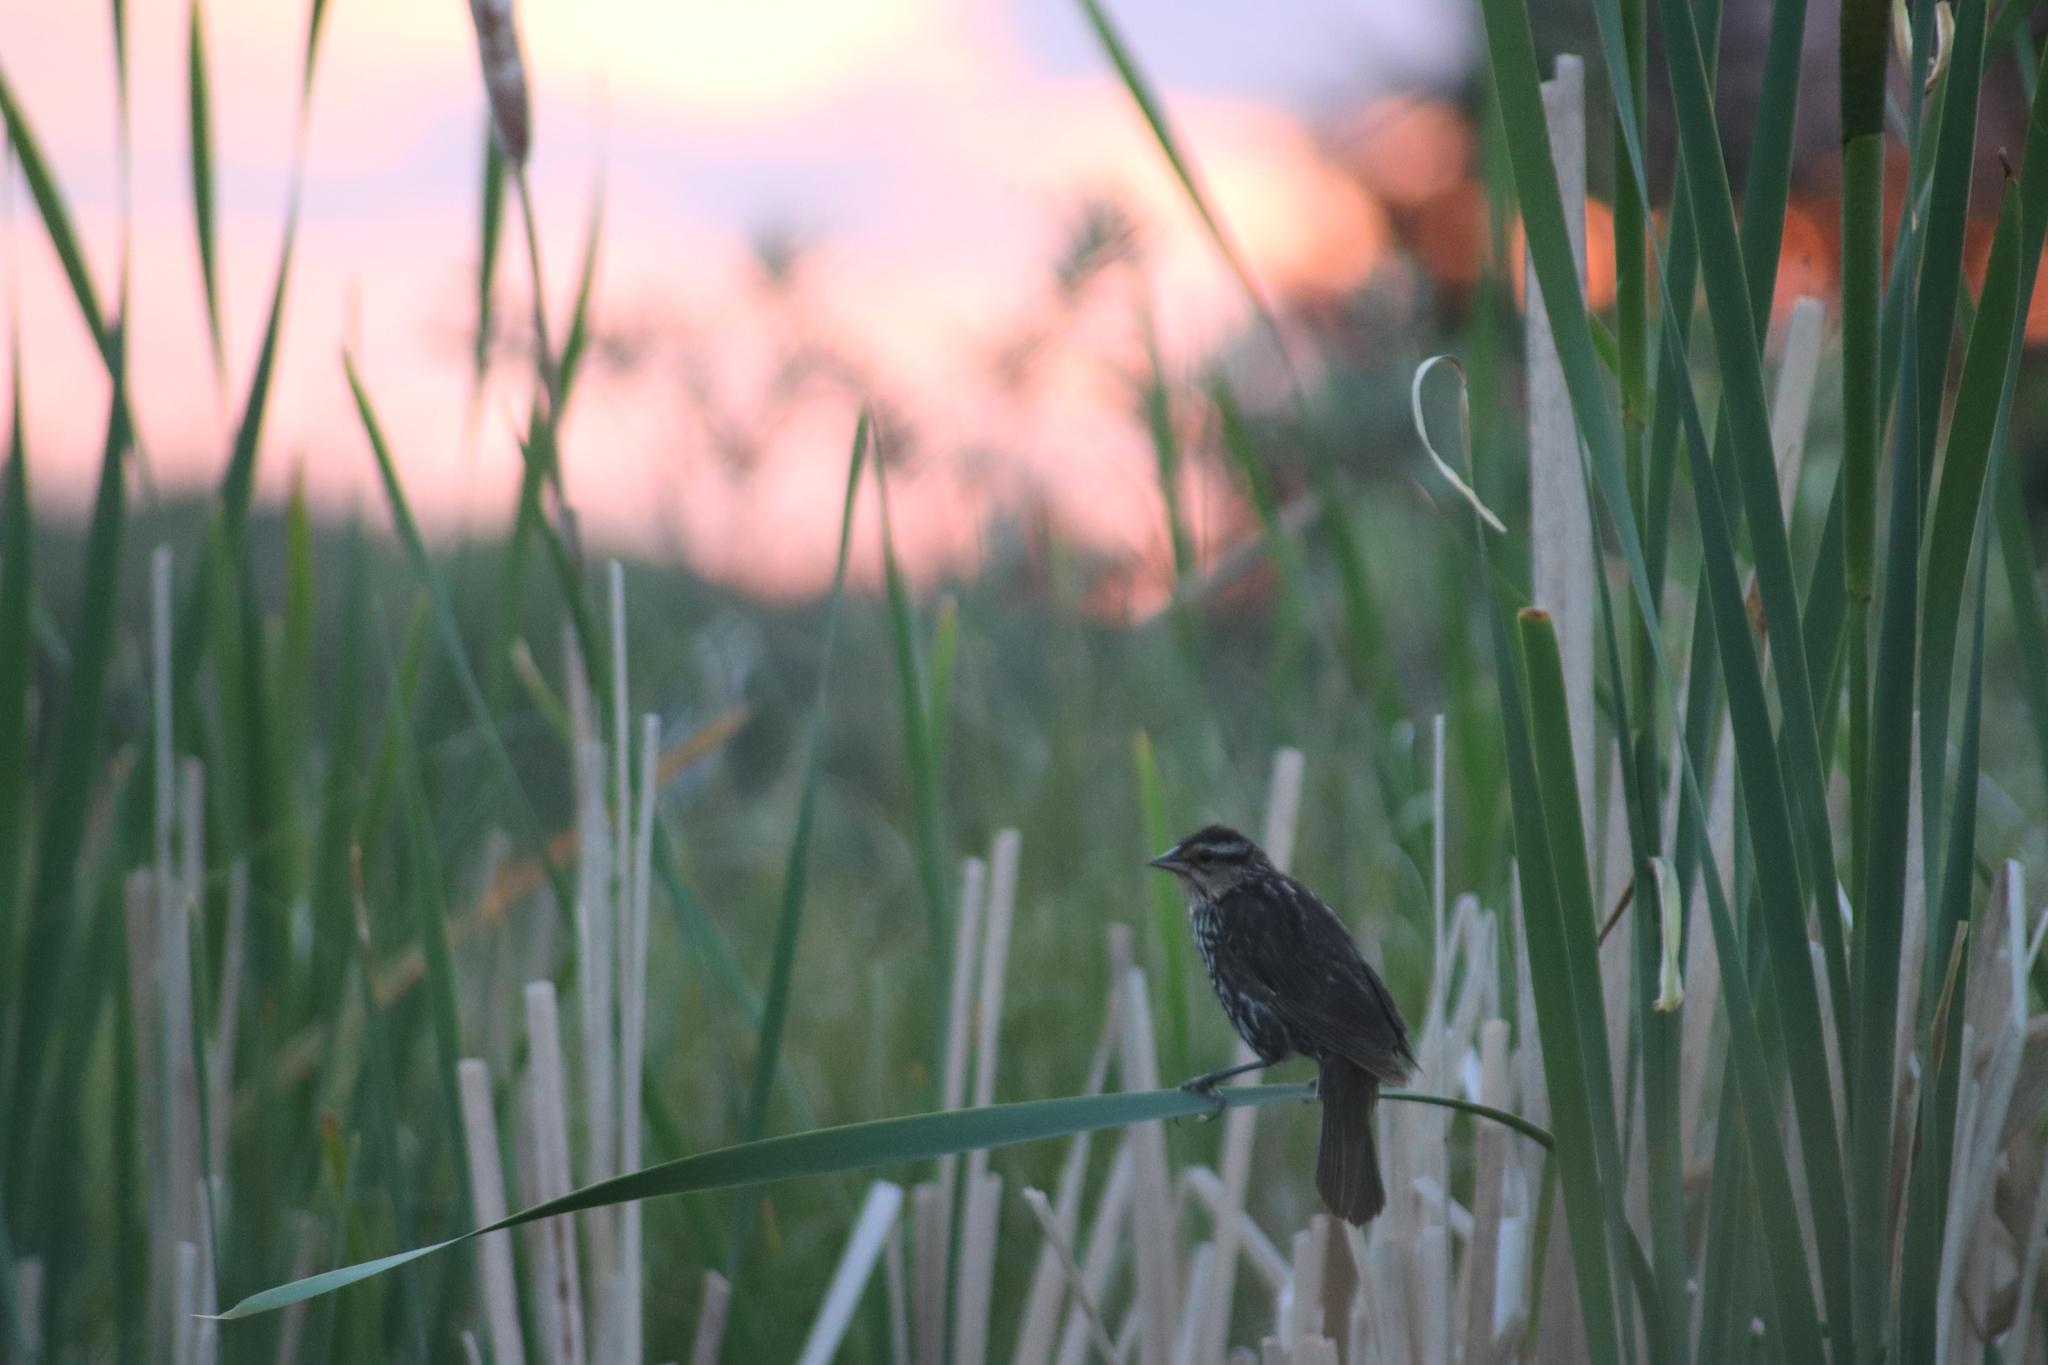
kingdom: Animalia
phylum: Chordata
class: Aves
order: Passeriformes
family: Icteridae
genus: Agelaius
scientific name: Agelaius phoeniceus
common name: Red-winged blackbird
